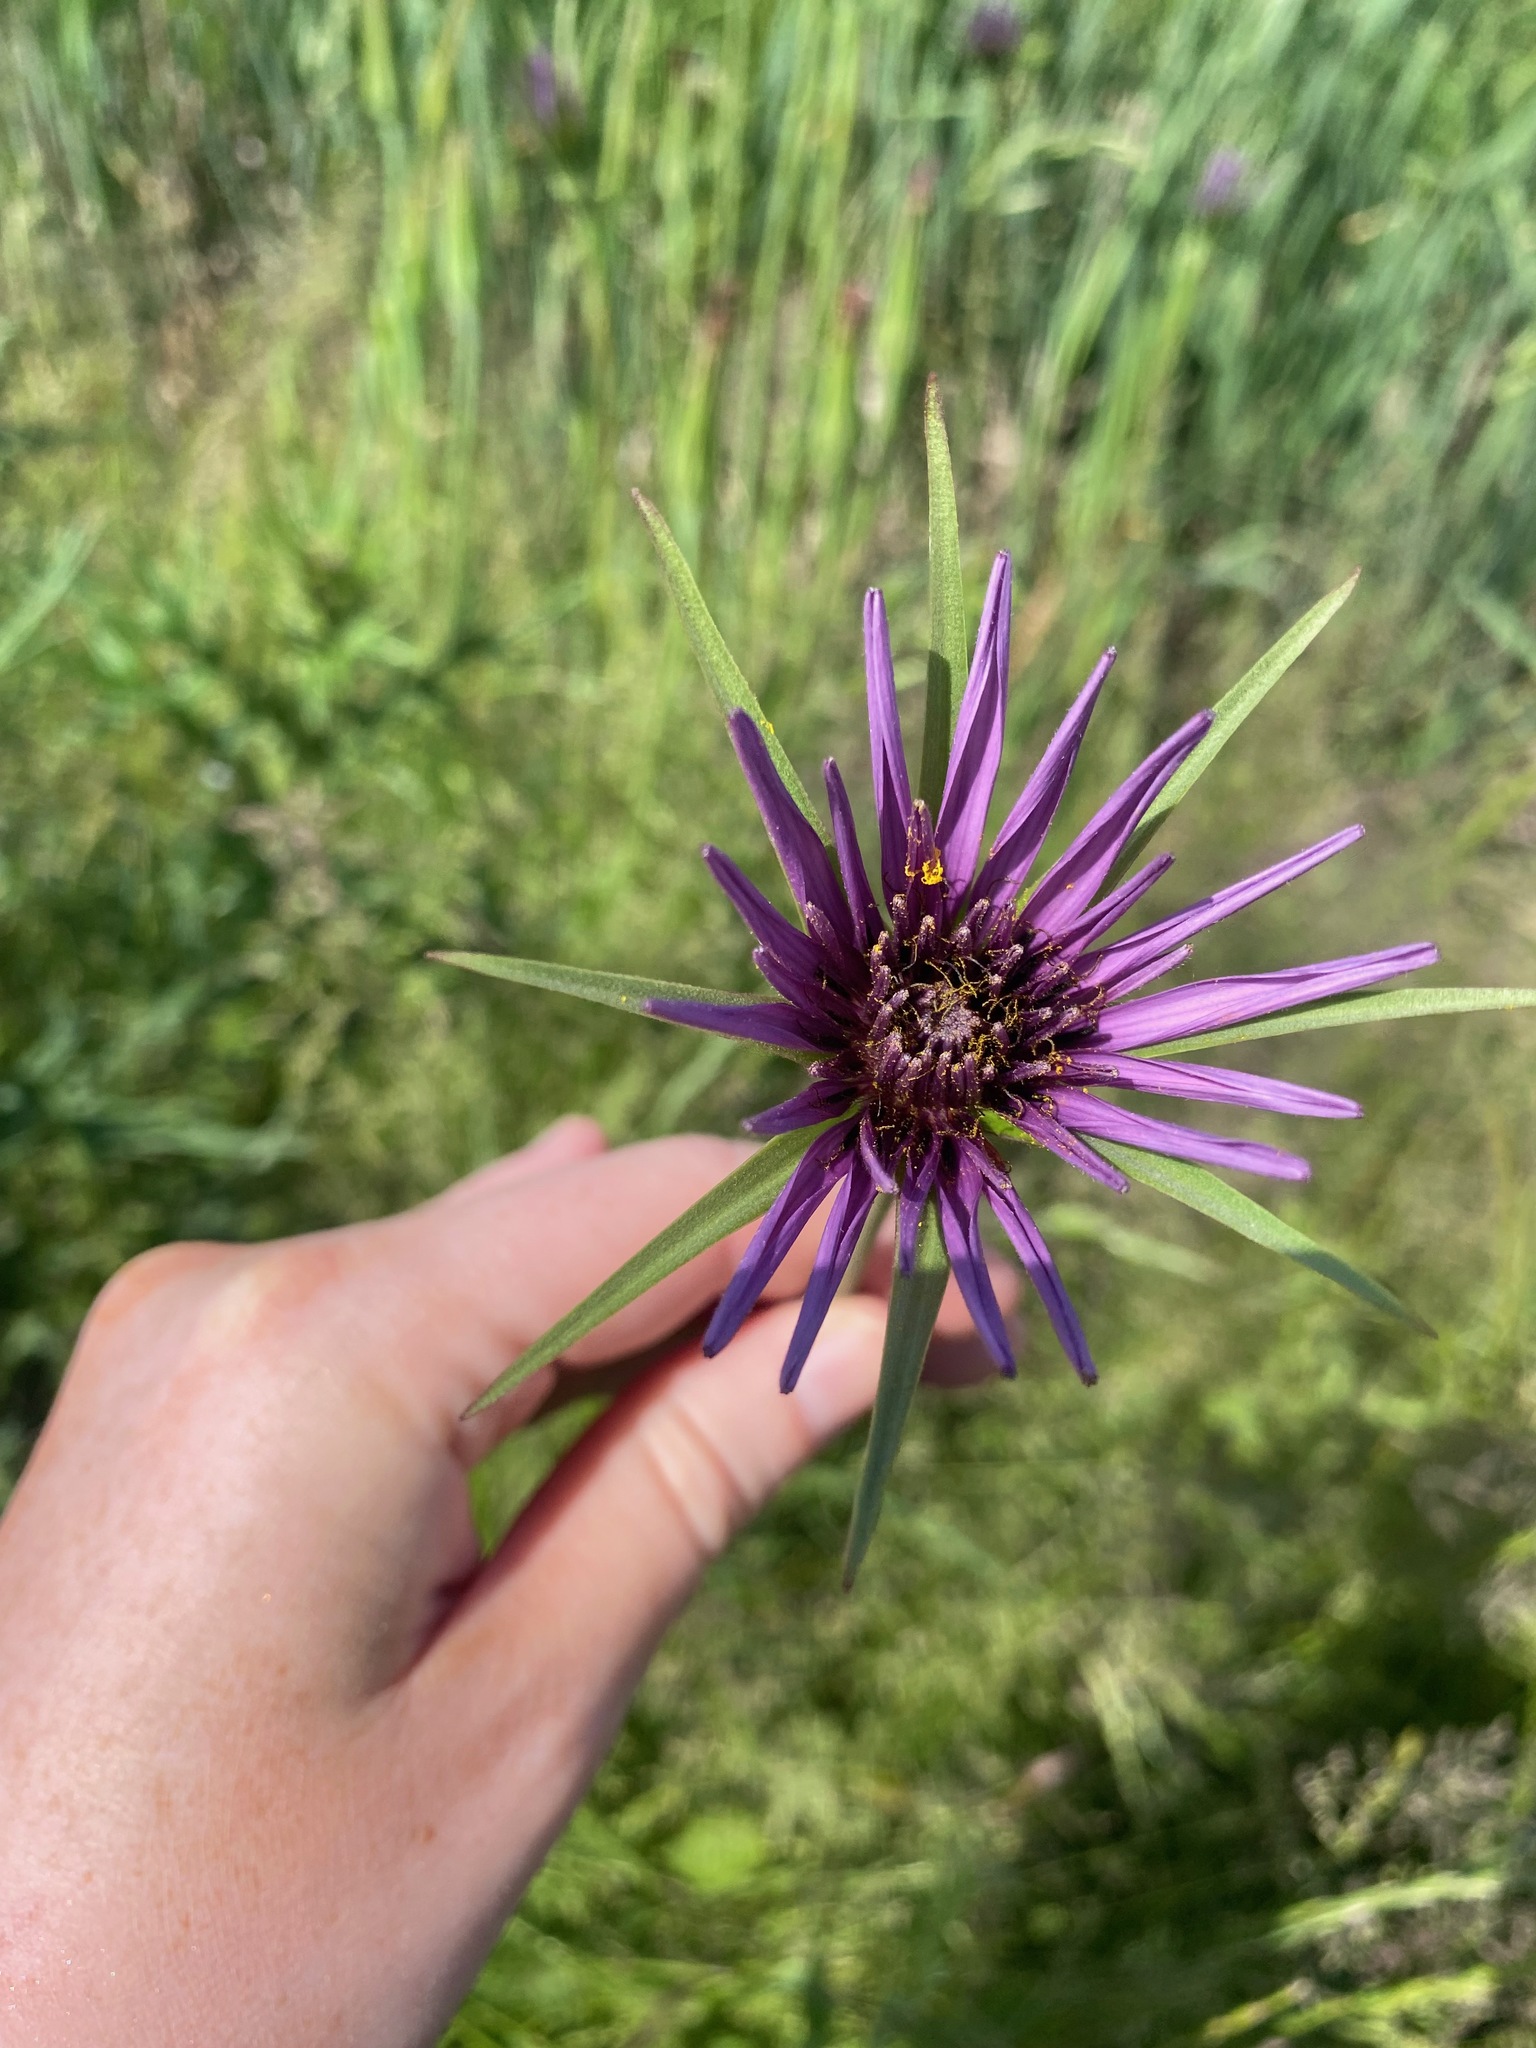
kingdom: Plantae
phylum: Tracheophyta
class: Magnoliopsida
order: Asterales
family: Asteraceae
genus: Tragopogon
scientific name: Tragopogon porrifolius
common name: Salsify
